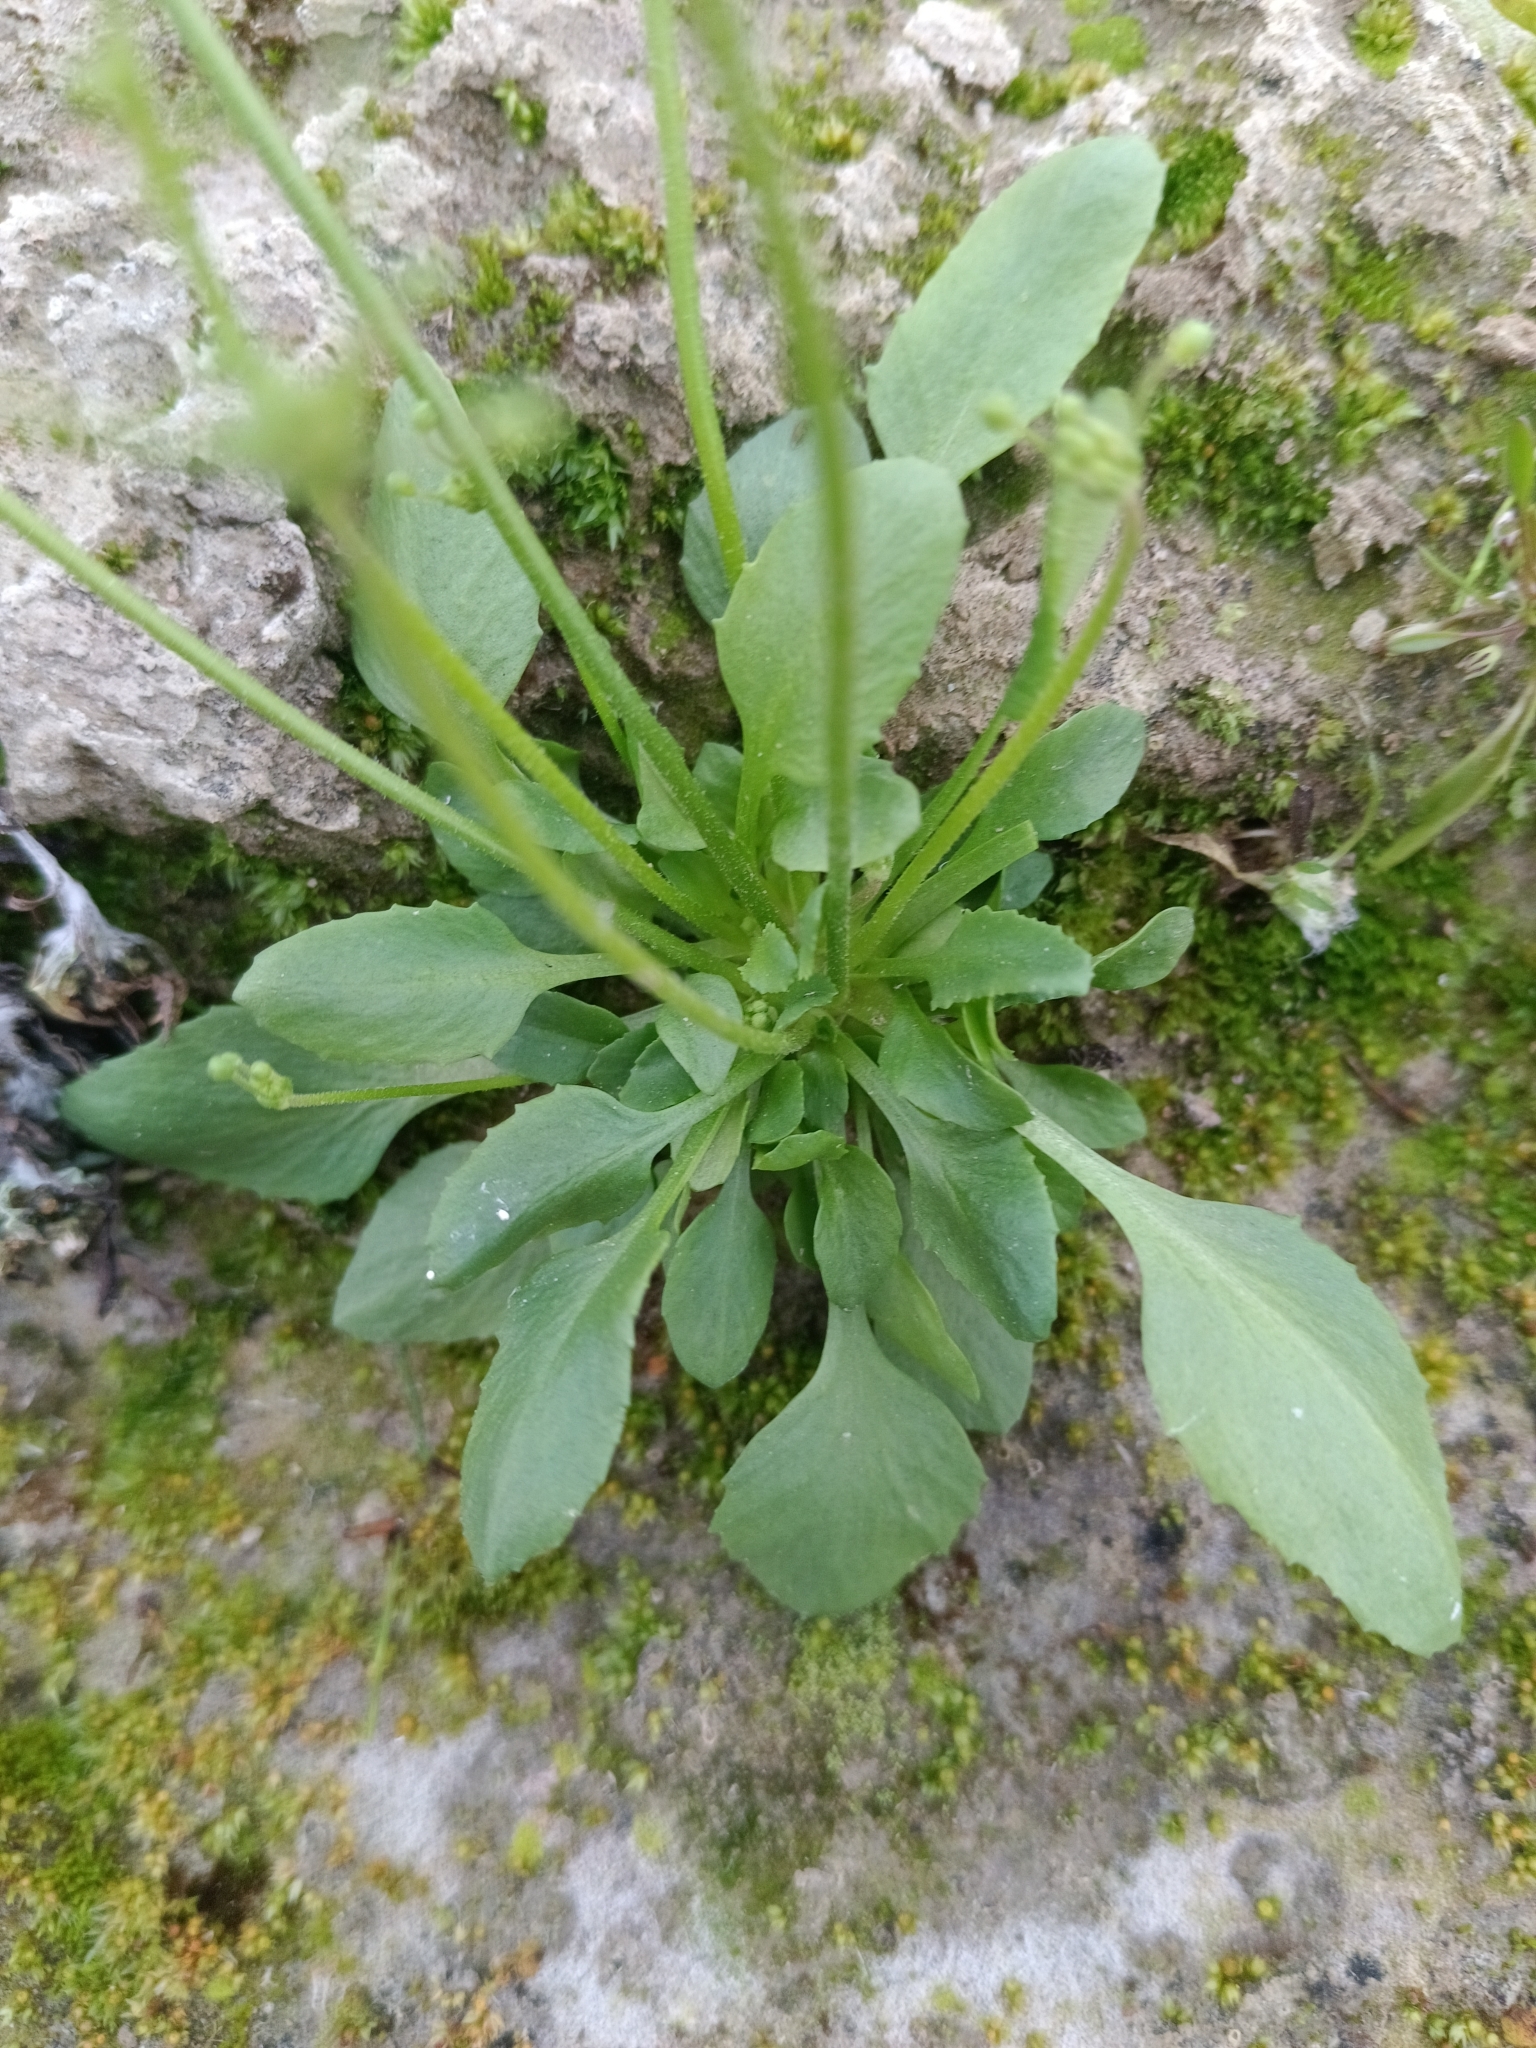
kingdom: Plantae
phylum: Tracheophyta
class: Magnoliopsida
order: Ericales
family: Primulaceae
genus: Androsace
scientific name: Androsace filiformis
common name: Filiform rock jasmine
